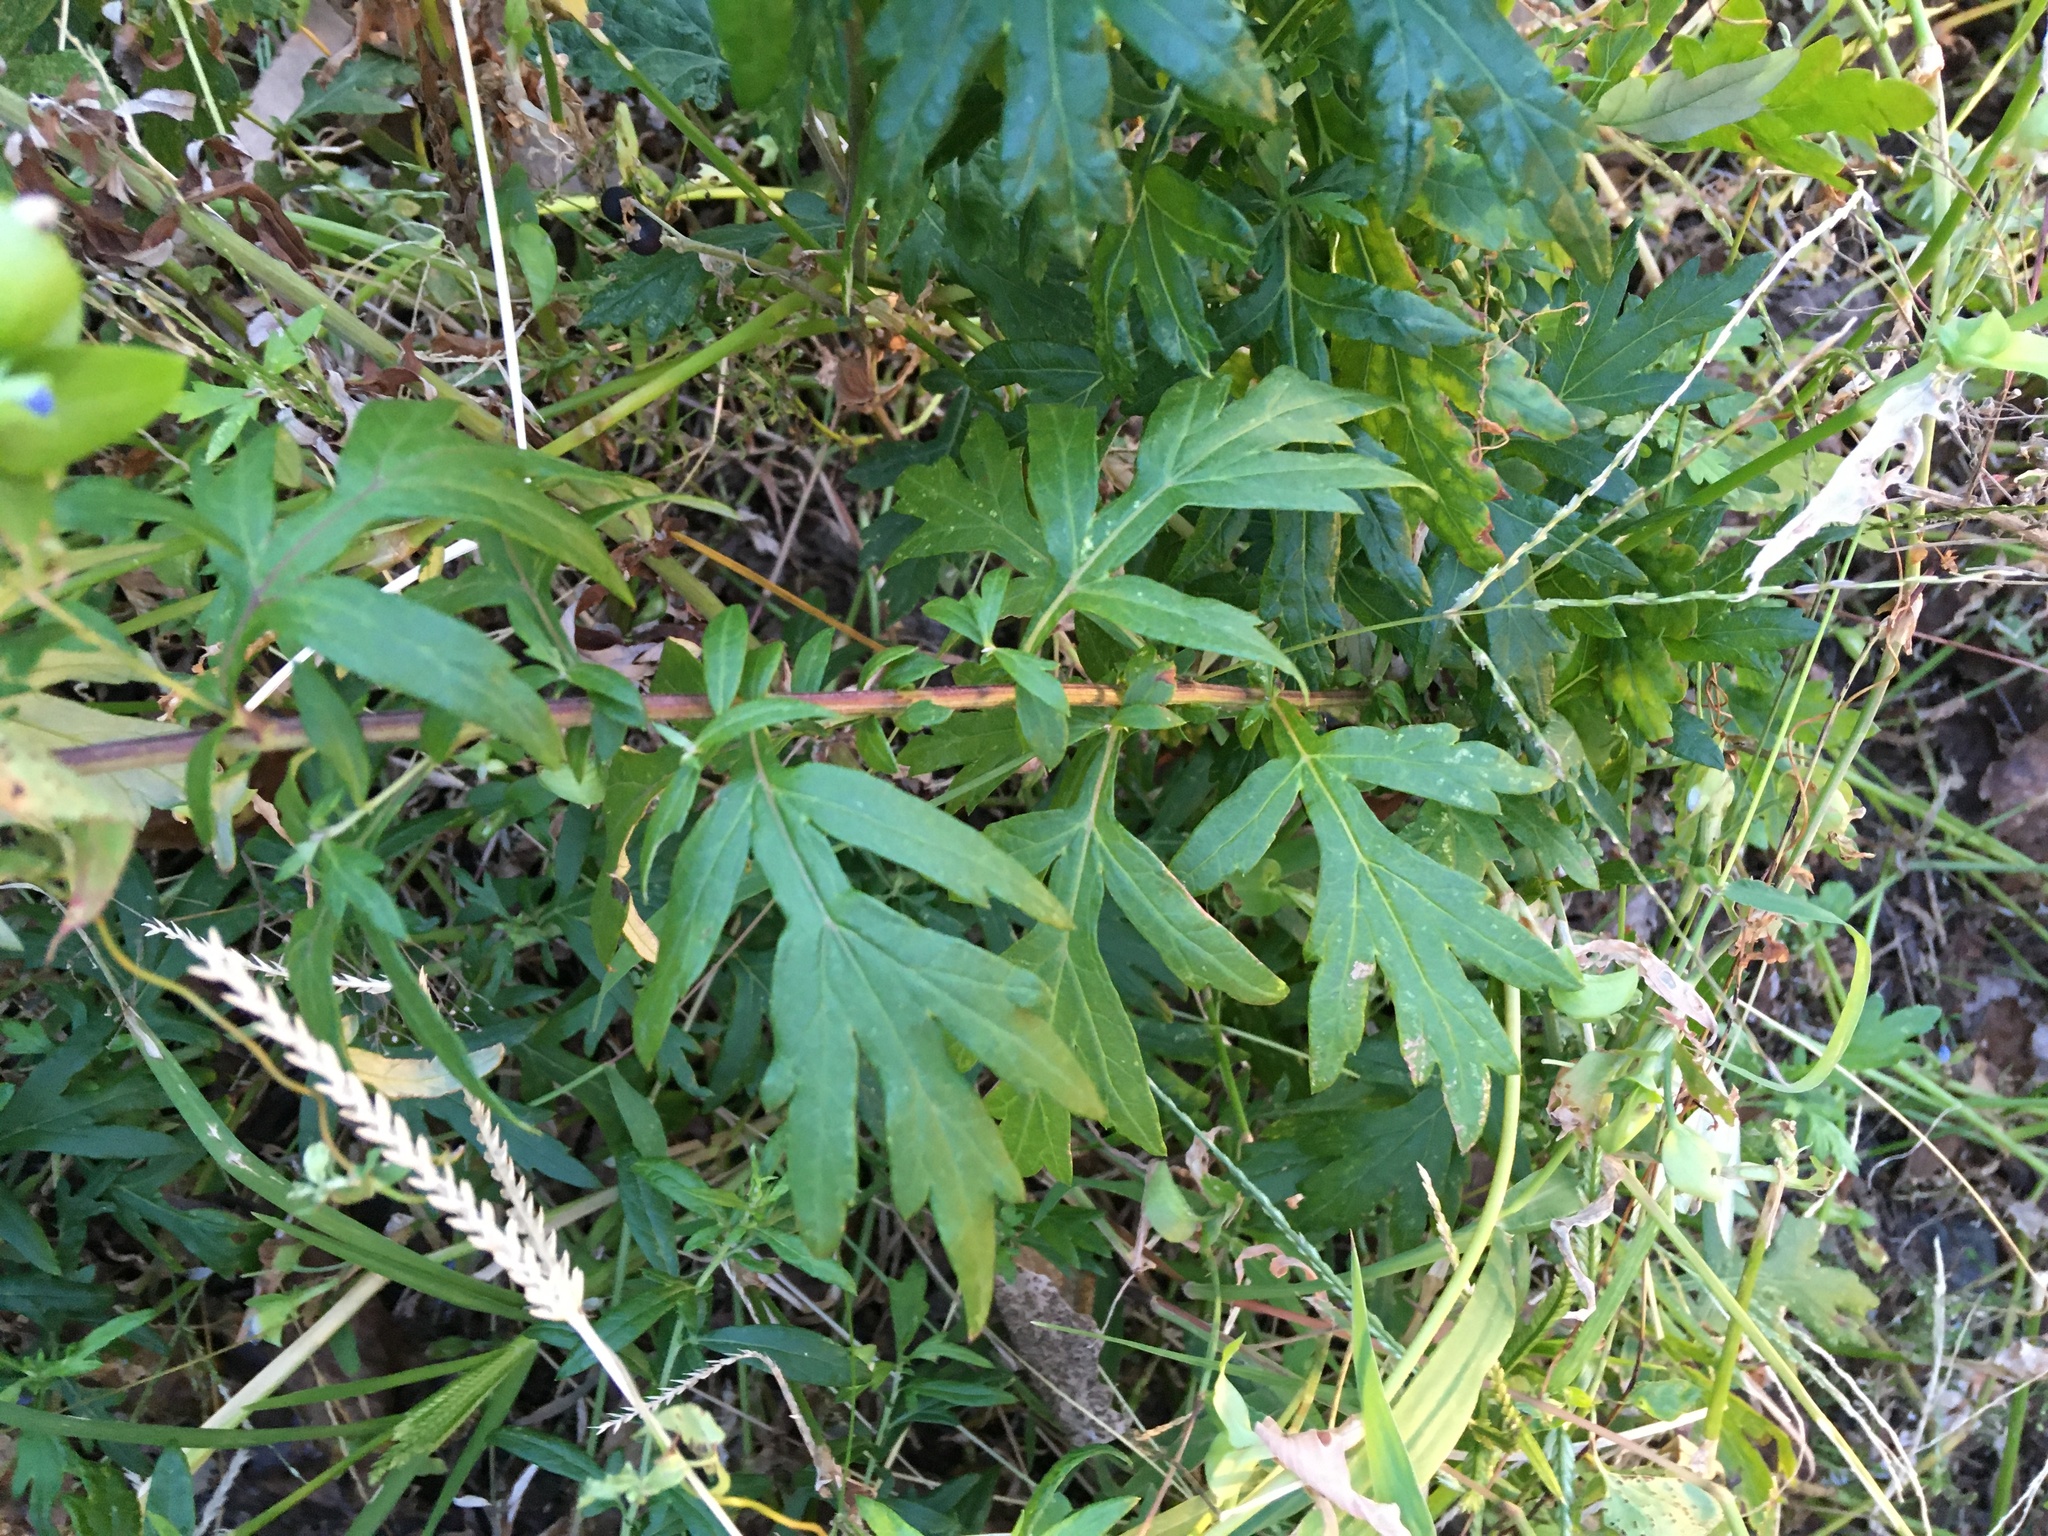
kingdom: Plantae
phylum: Tracheophyta
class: Magnoliopsida
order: Asterales
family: Asteraceae
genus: Artemisia
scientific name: Artemisia vulgaris
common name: Mugwort
